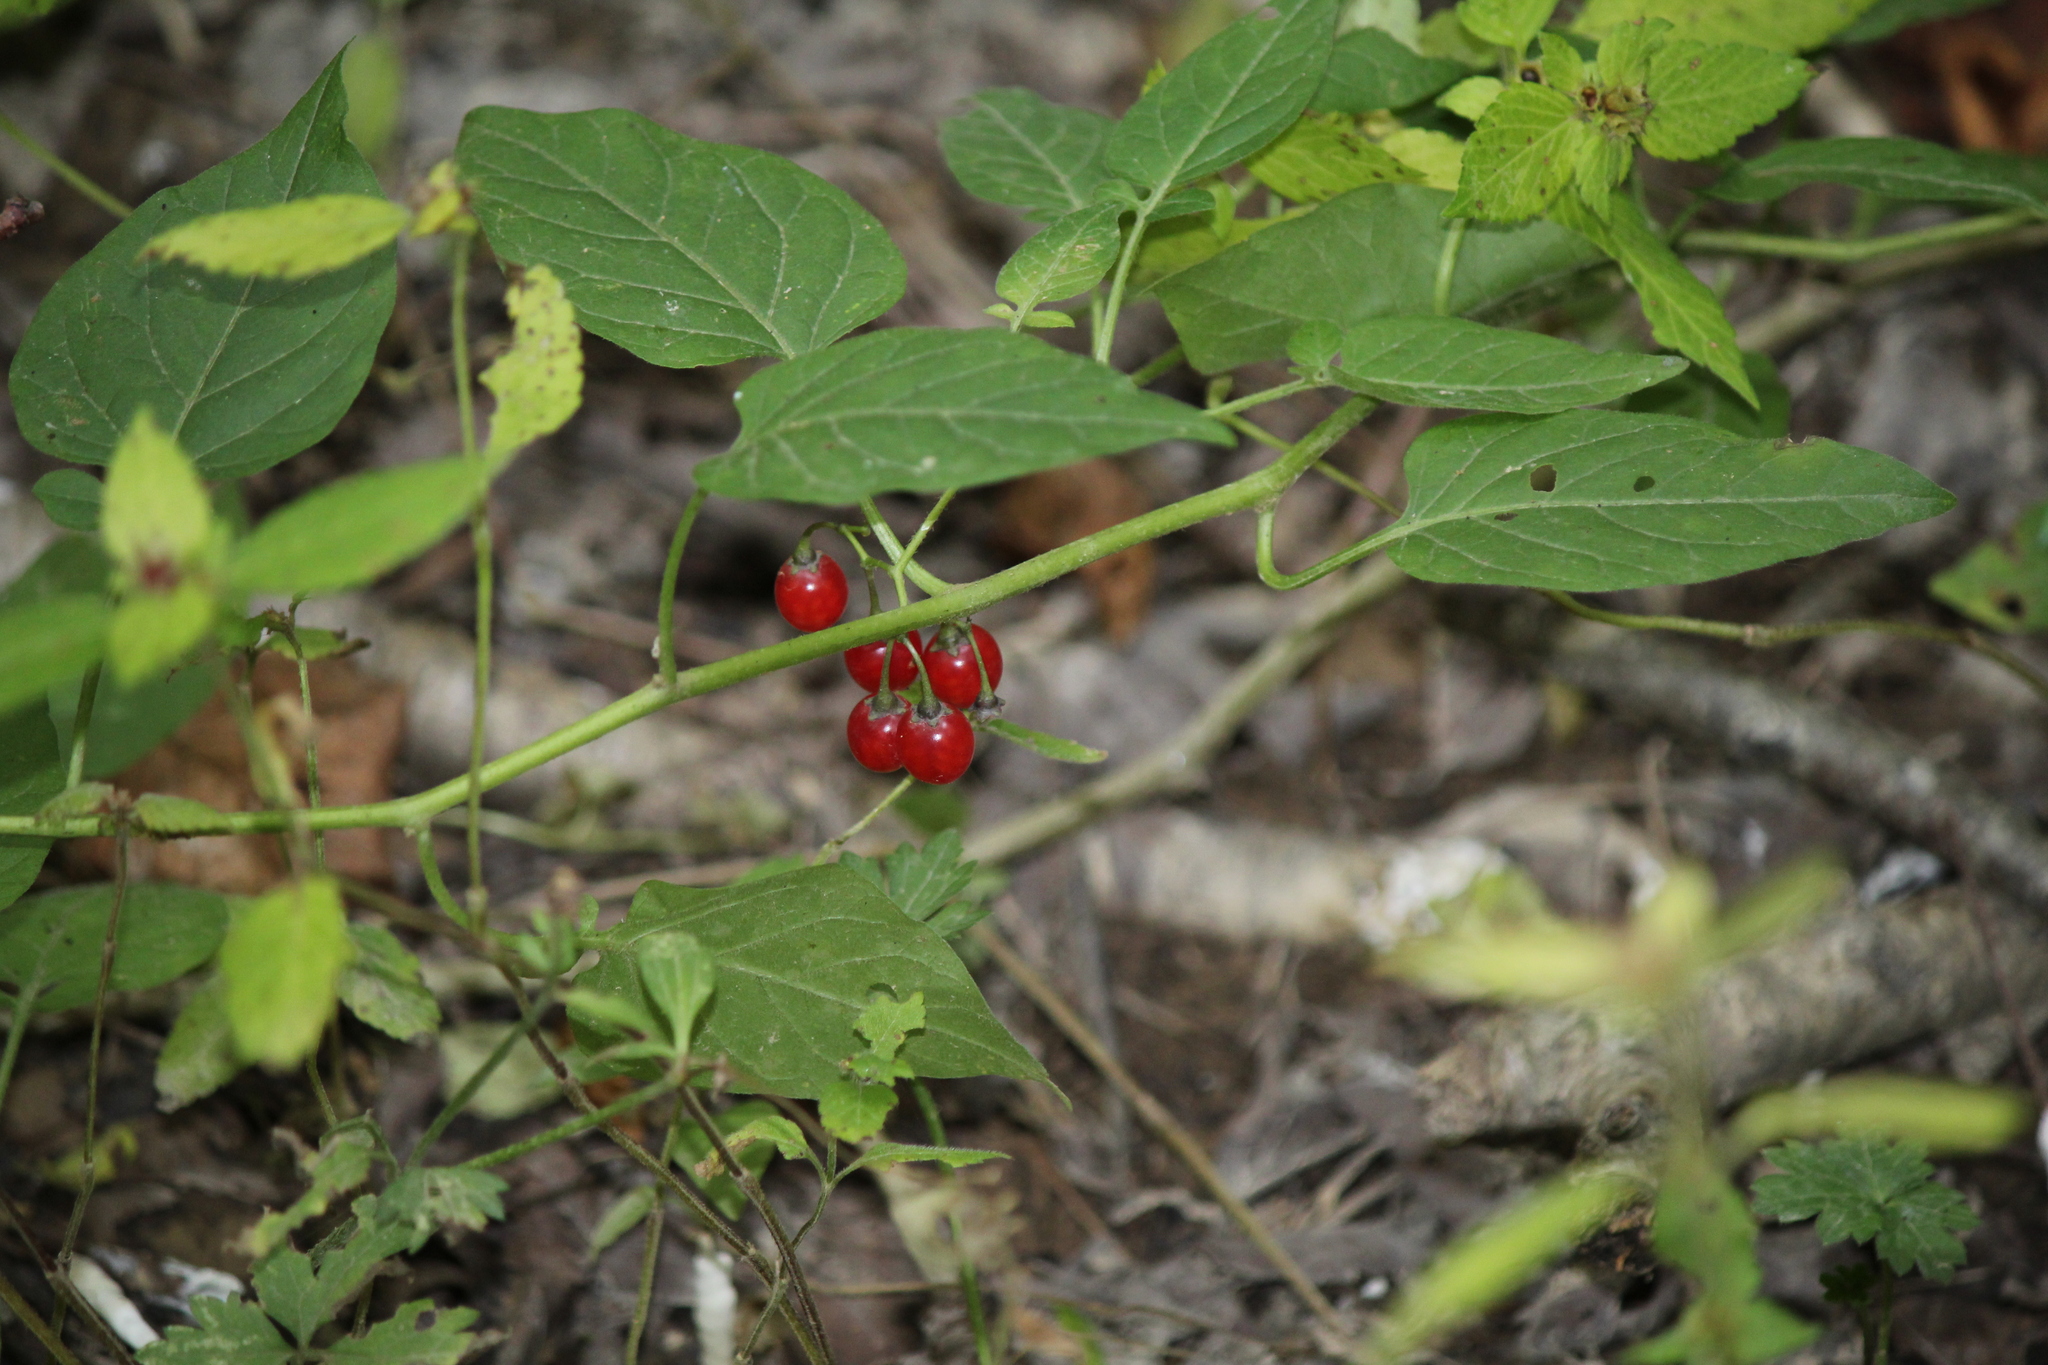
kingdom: Plantae
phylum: Tracheophyta
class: Magnoliopsida
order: Solanales
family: Solanaceae
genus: Solanum
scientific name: Solanum dulcamara
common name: Climbing nightshade
